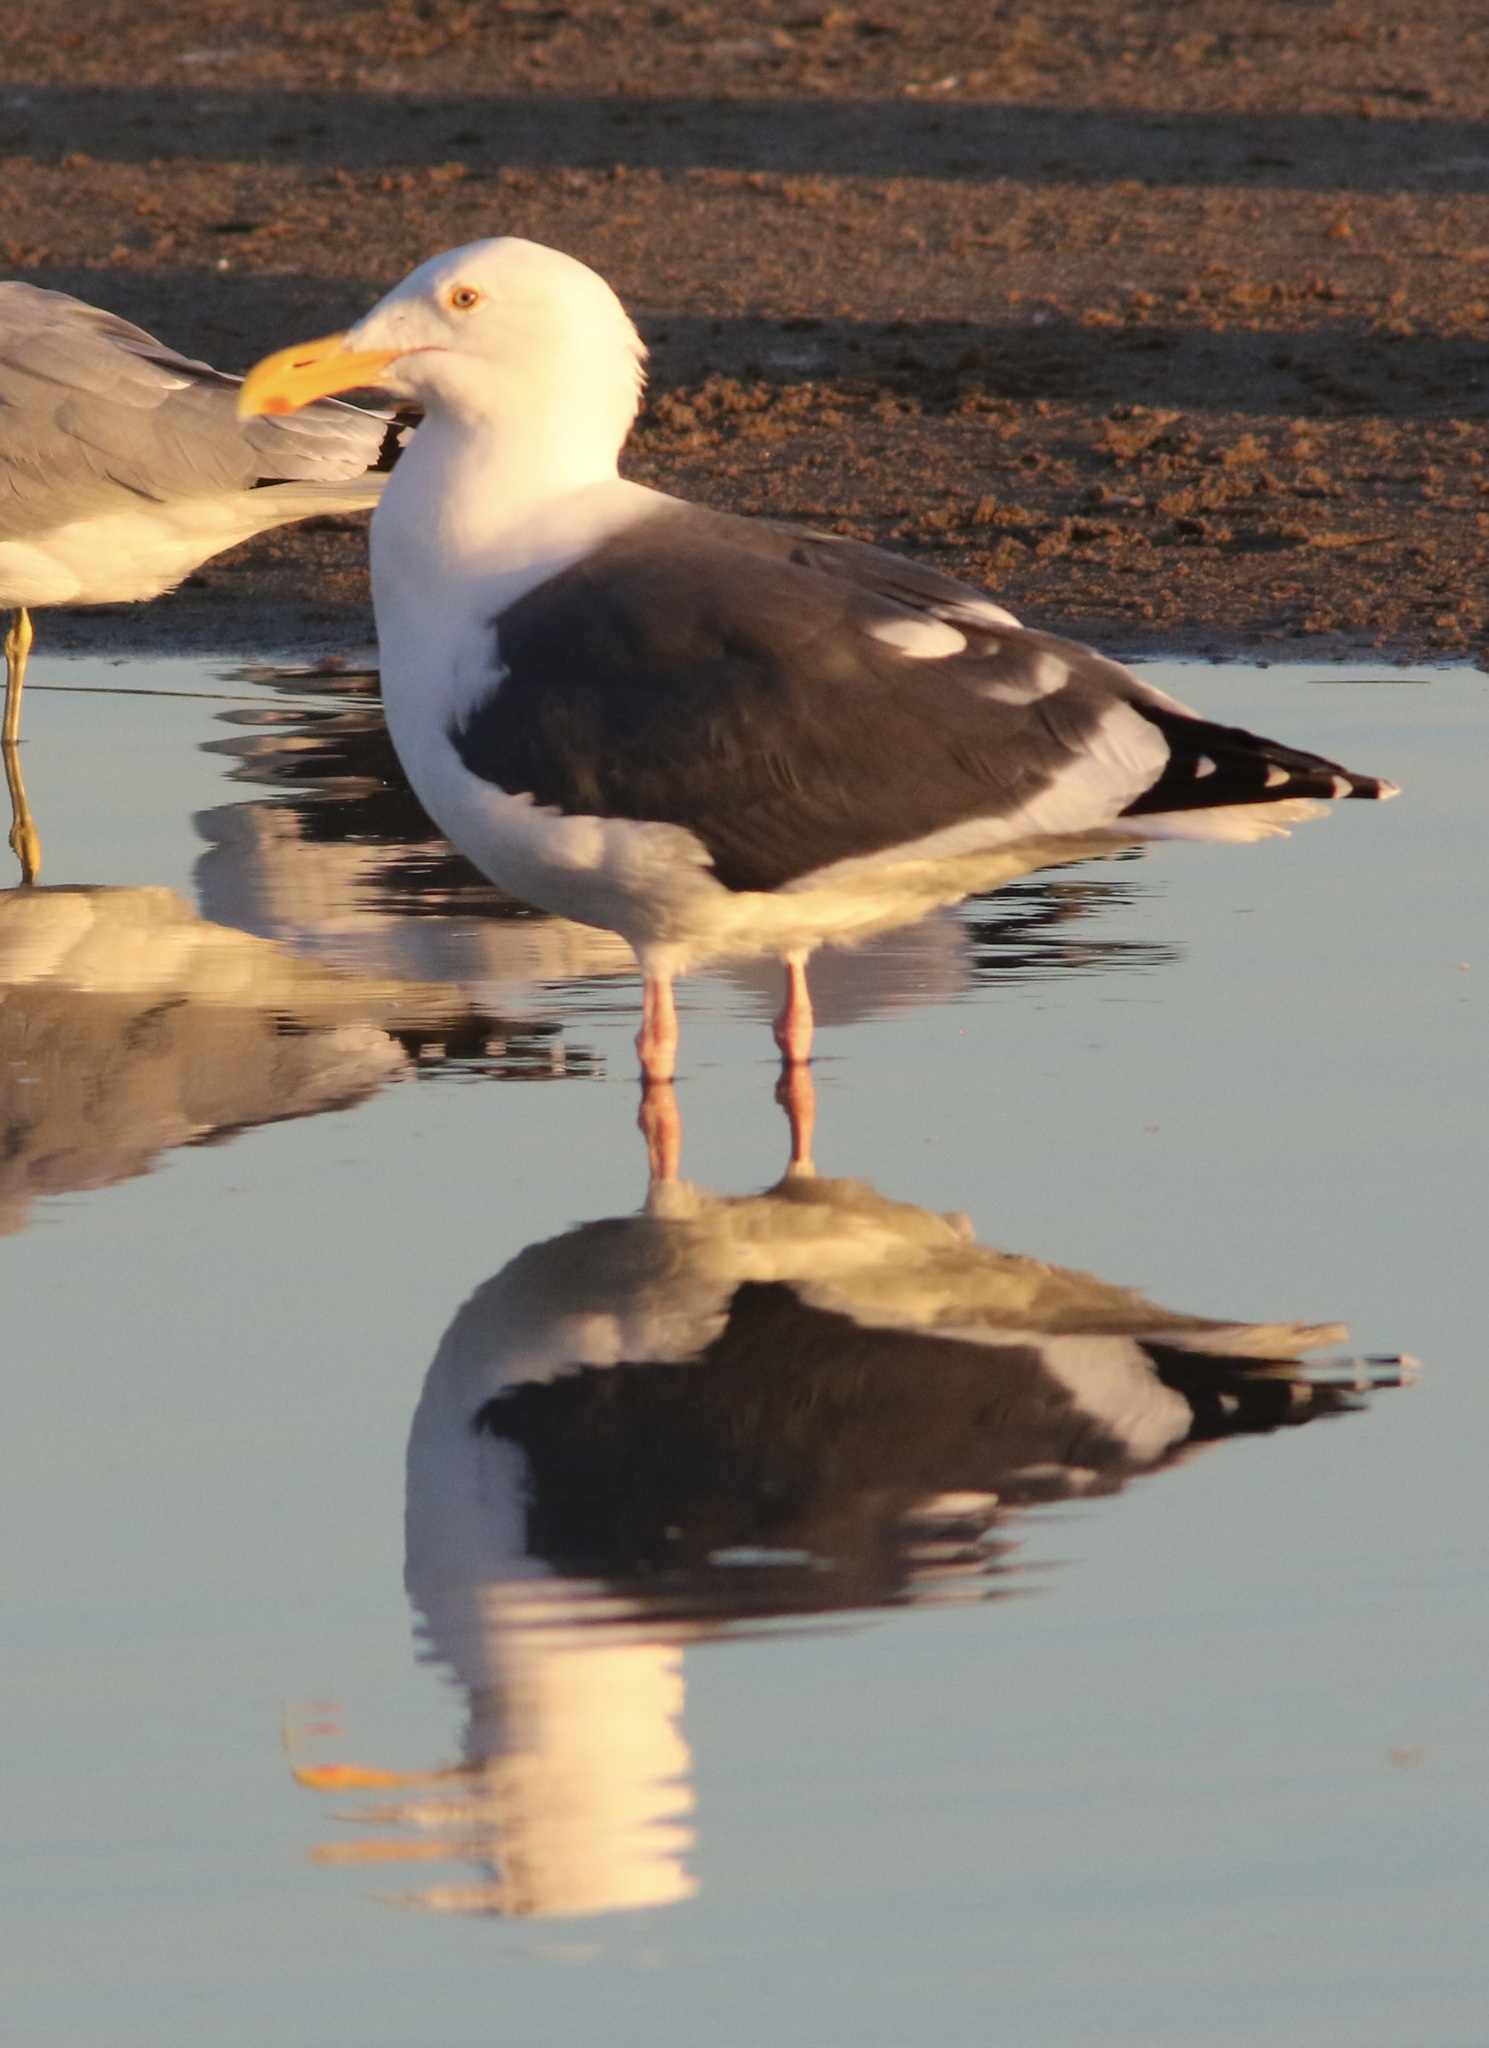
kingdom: Animalia
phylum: Chordata
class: Aves
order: Charadriiformes
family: Laridae
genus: Larus
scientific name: Larus occidentalis
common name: Western gull
